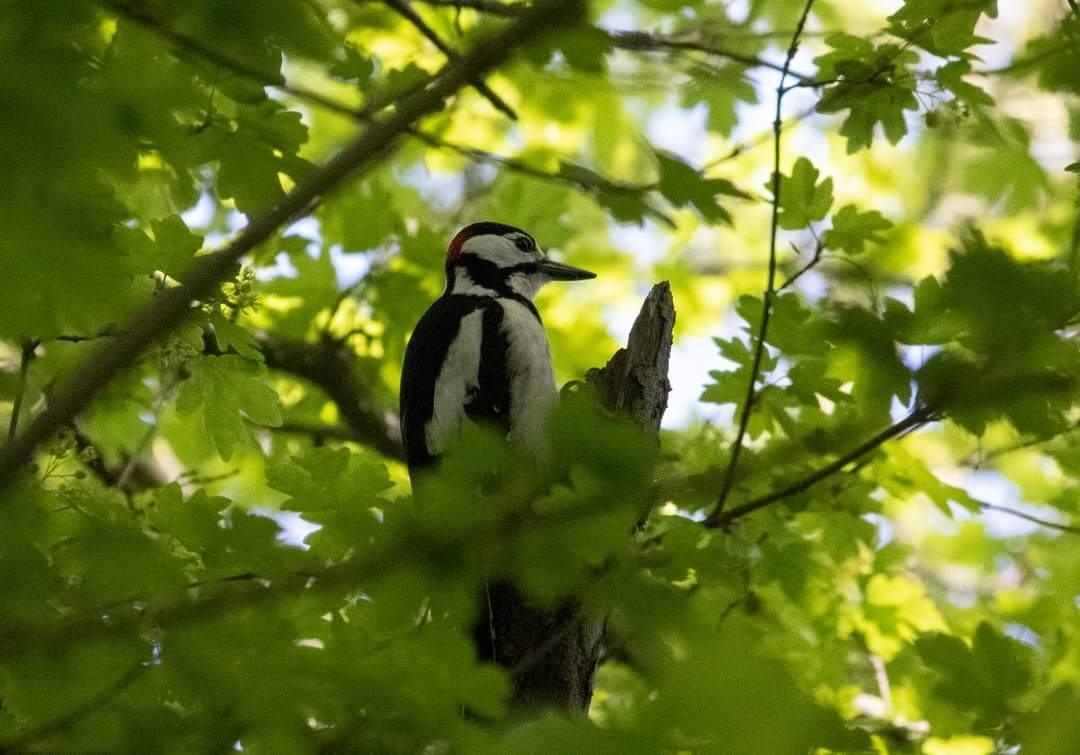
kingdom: Animalia
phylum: Chordata
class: Aves
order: Piciformes
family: Picidae
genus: Dendrocopos
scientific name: Dendrocopos major
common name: Great spotted woodpecker
